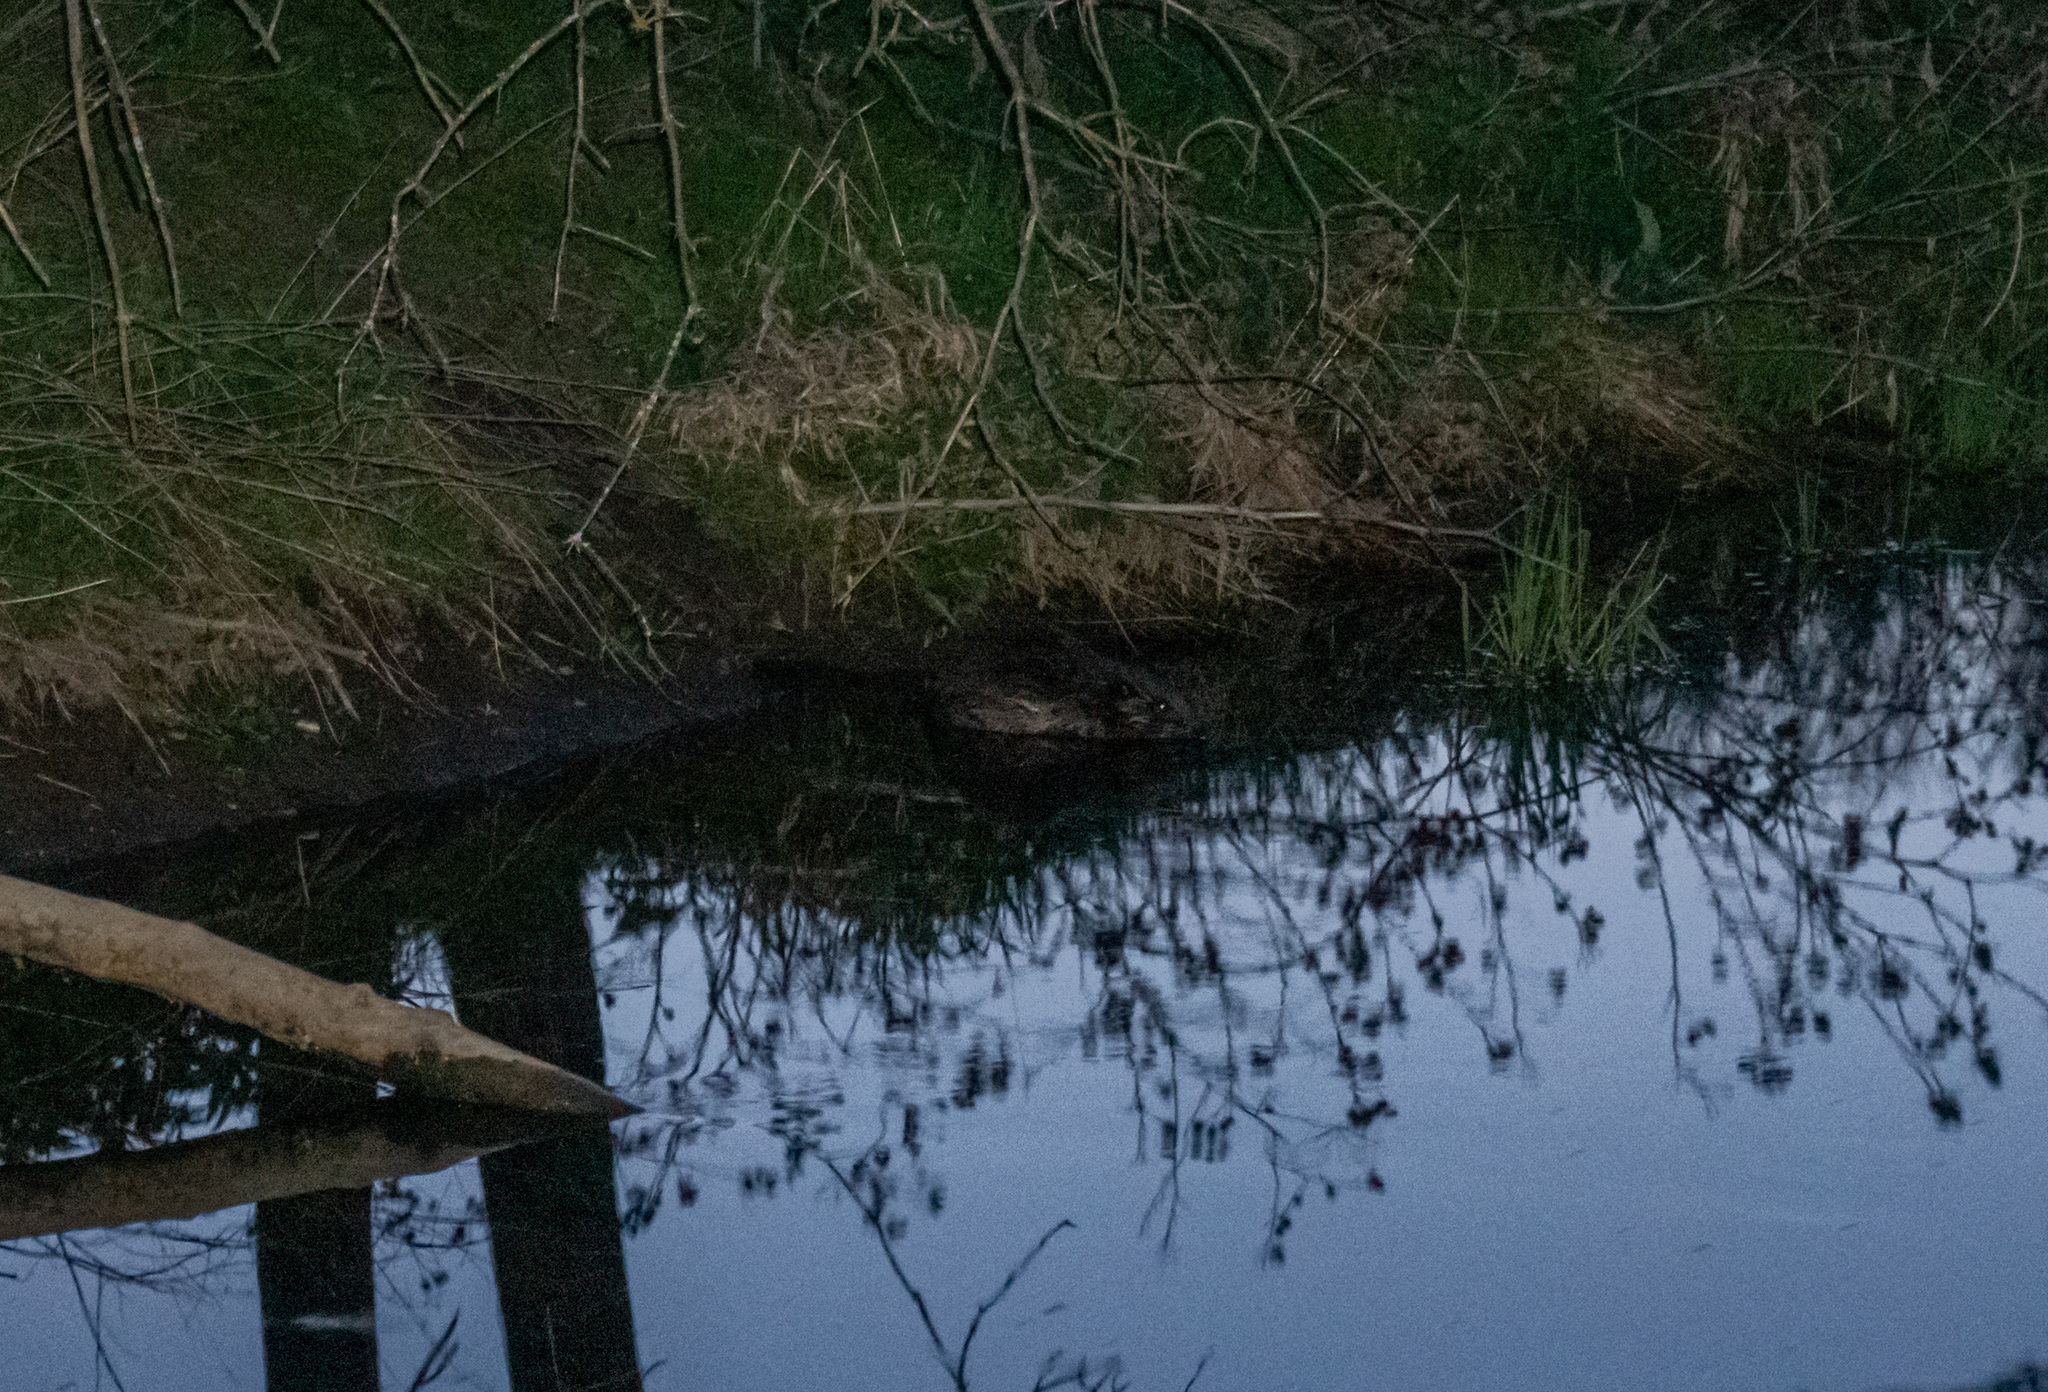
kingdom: Animalia
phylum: Chordata
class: Mammalia
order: Rodentia
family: Castoridae
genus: Castor
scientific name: Castor fiber
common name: Eurasian beaver
